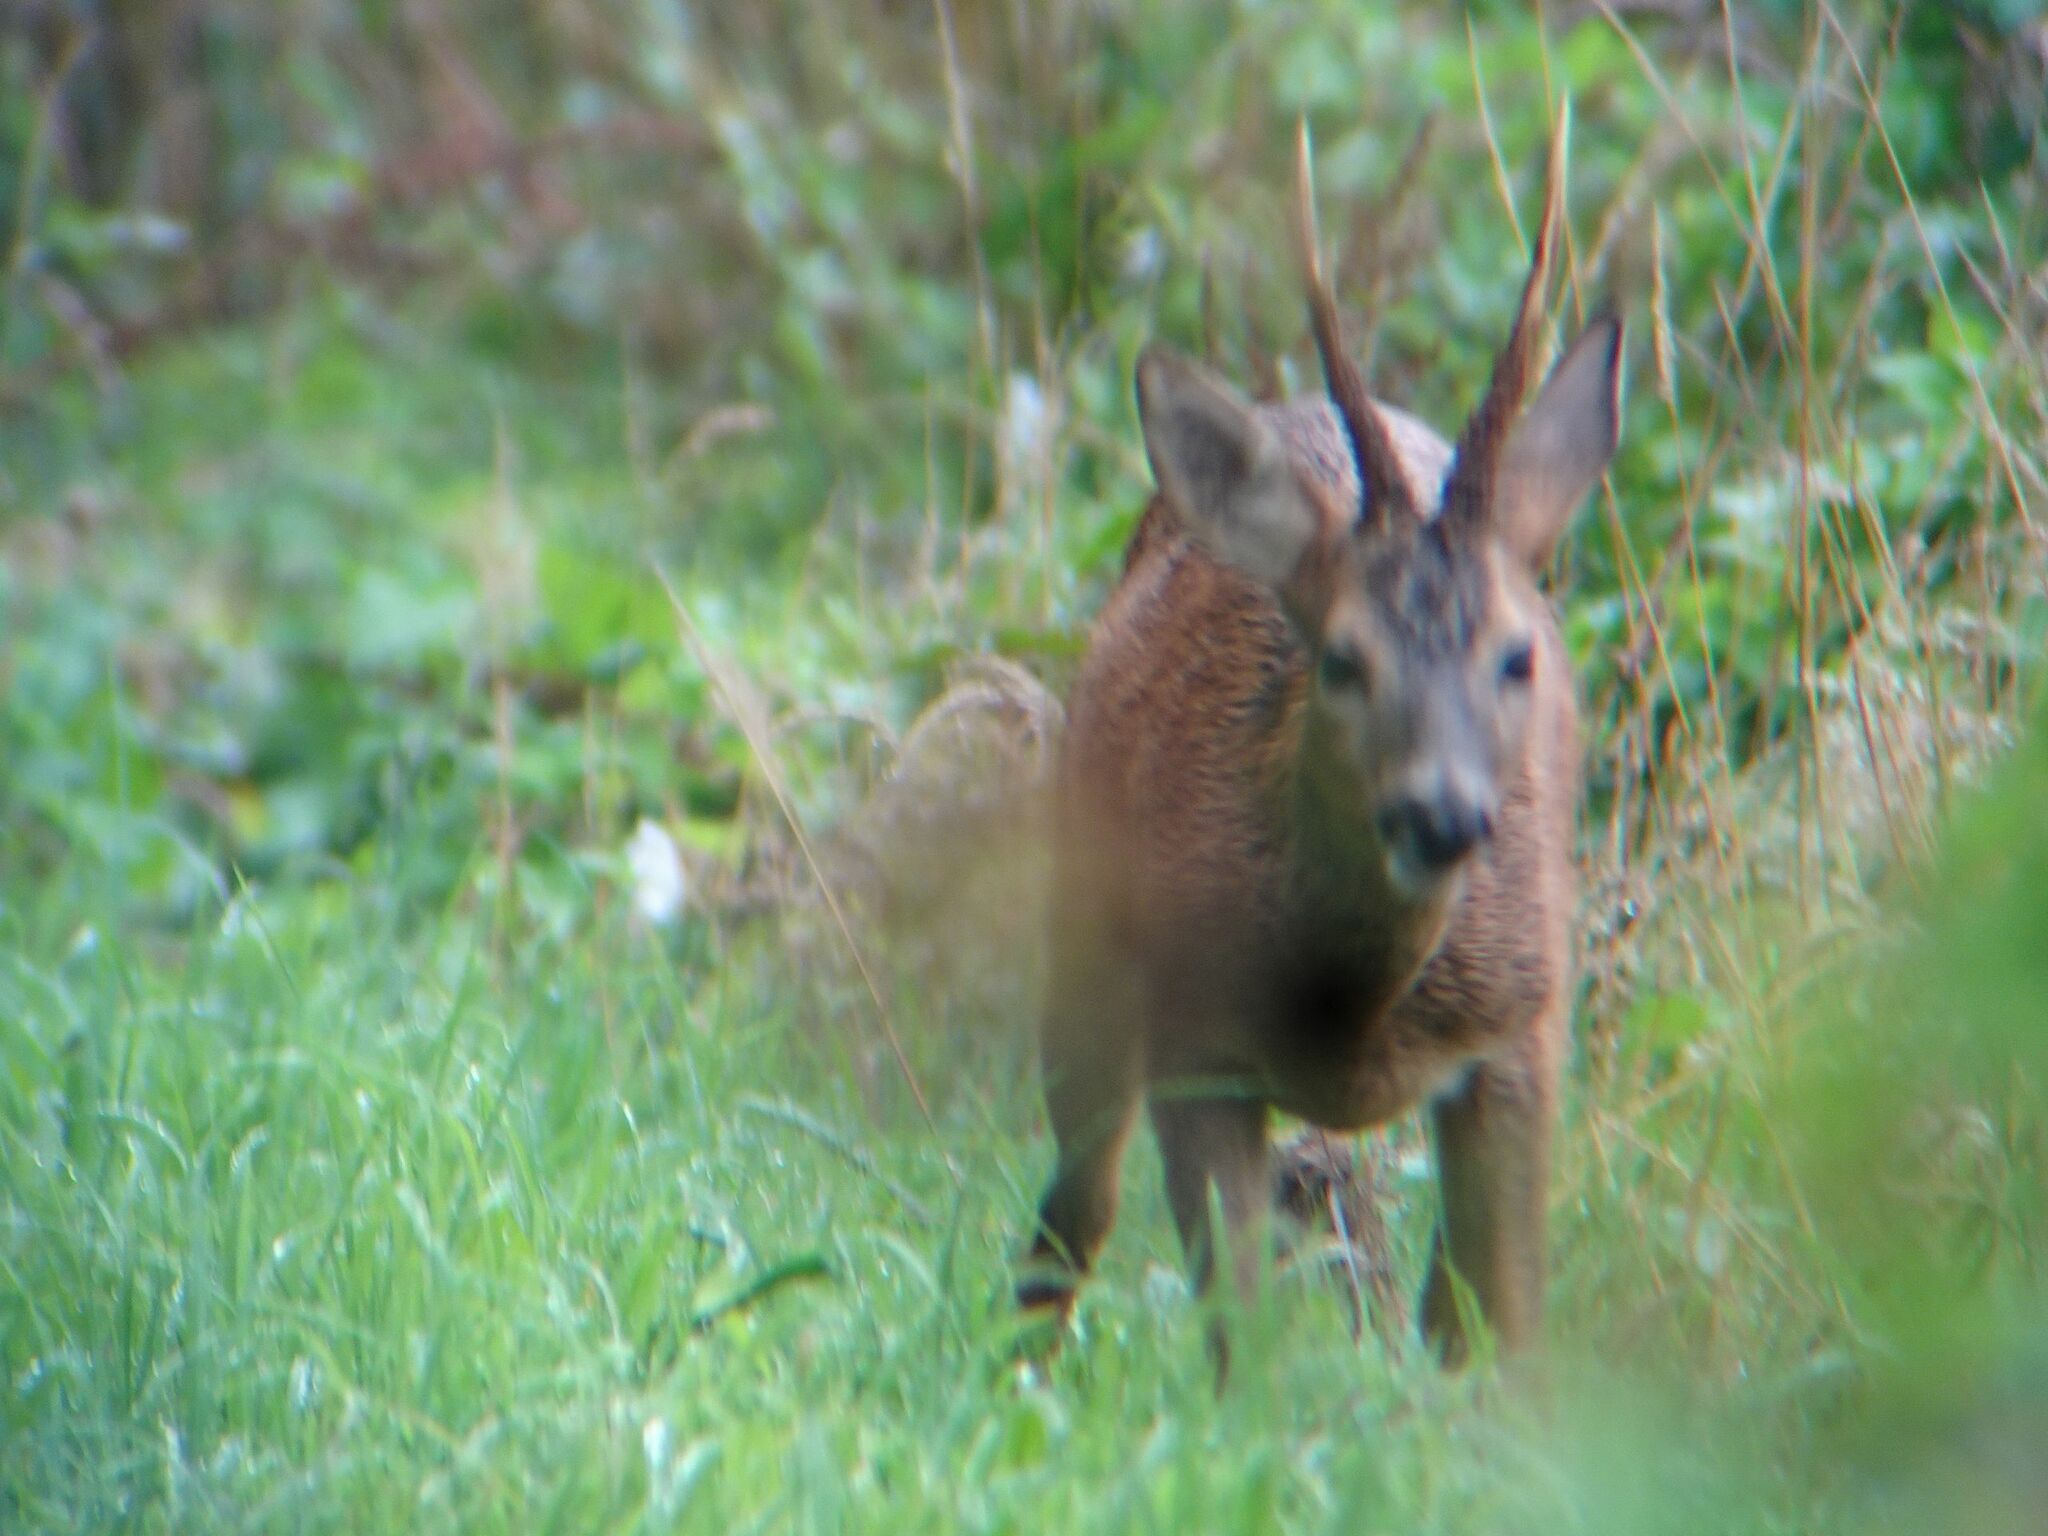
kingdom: Animalia
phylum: Chordata
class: Mammalia
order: Artiodactyla
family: Cervidae
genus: Capreolus
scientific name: Capreolus capreolus
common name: Western roe deer
